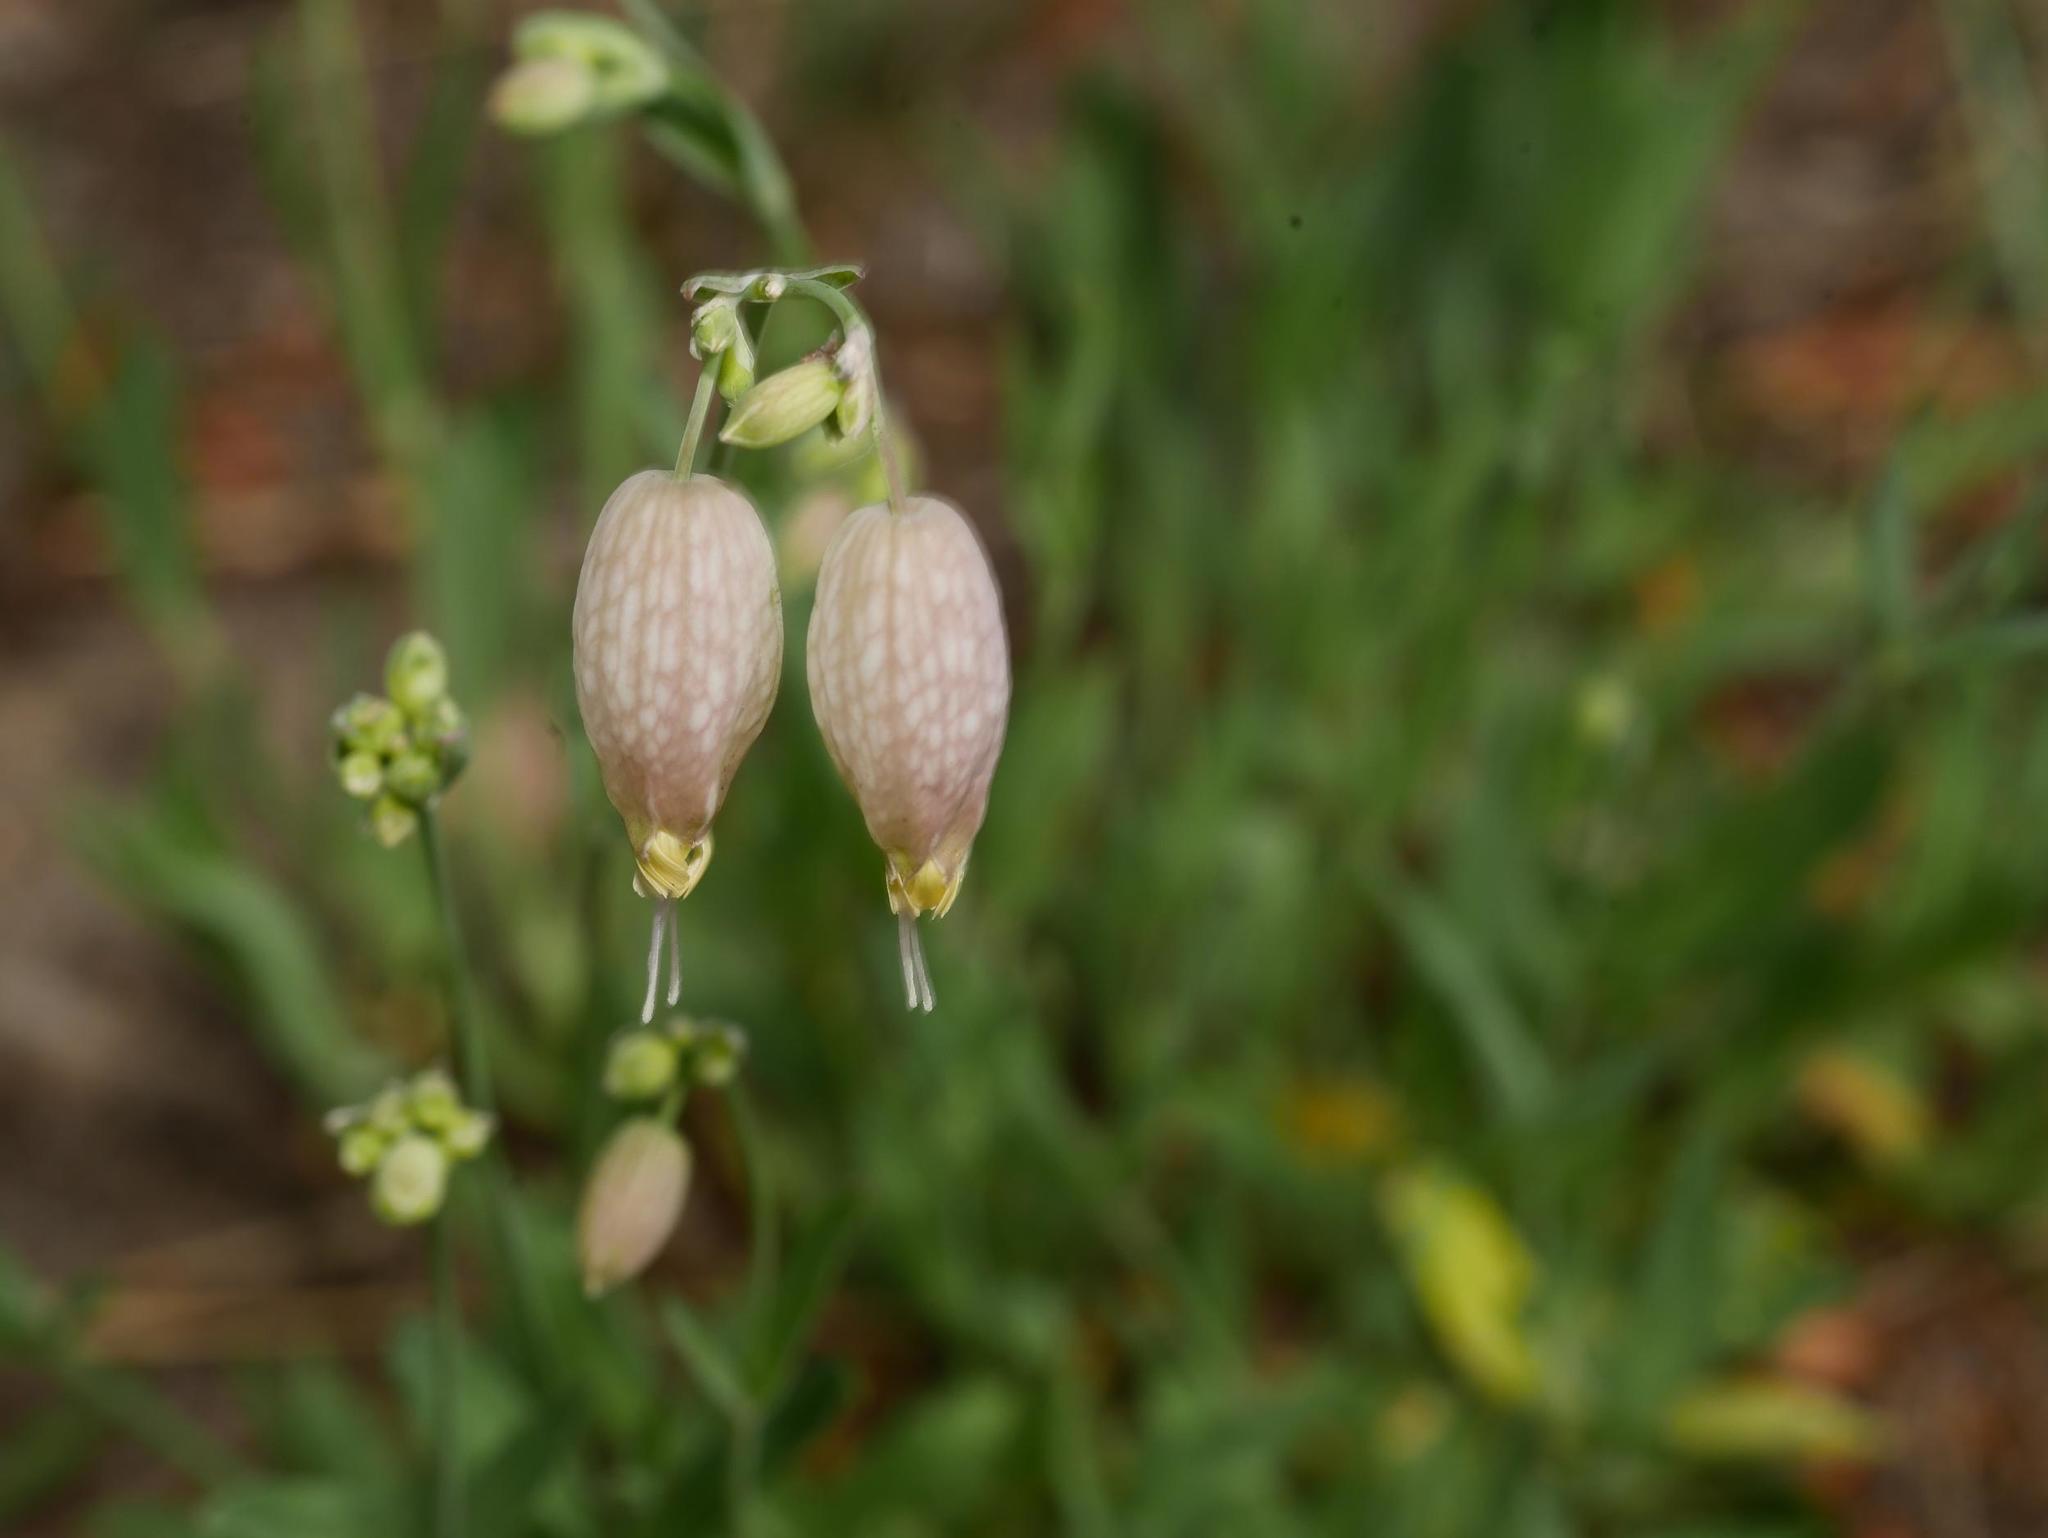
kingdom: Plantae
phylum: Tracheophyta
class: Magnoliopsida
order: Caryophyllales
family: Caryophyllaceae
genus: Silene
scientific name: Silene vulgaris
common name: Bladder campion
